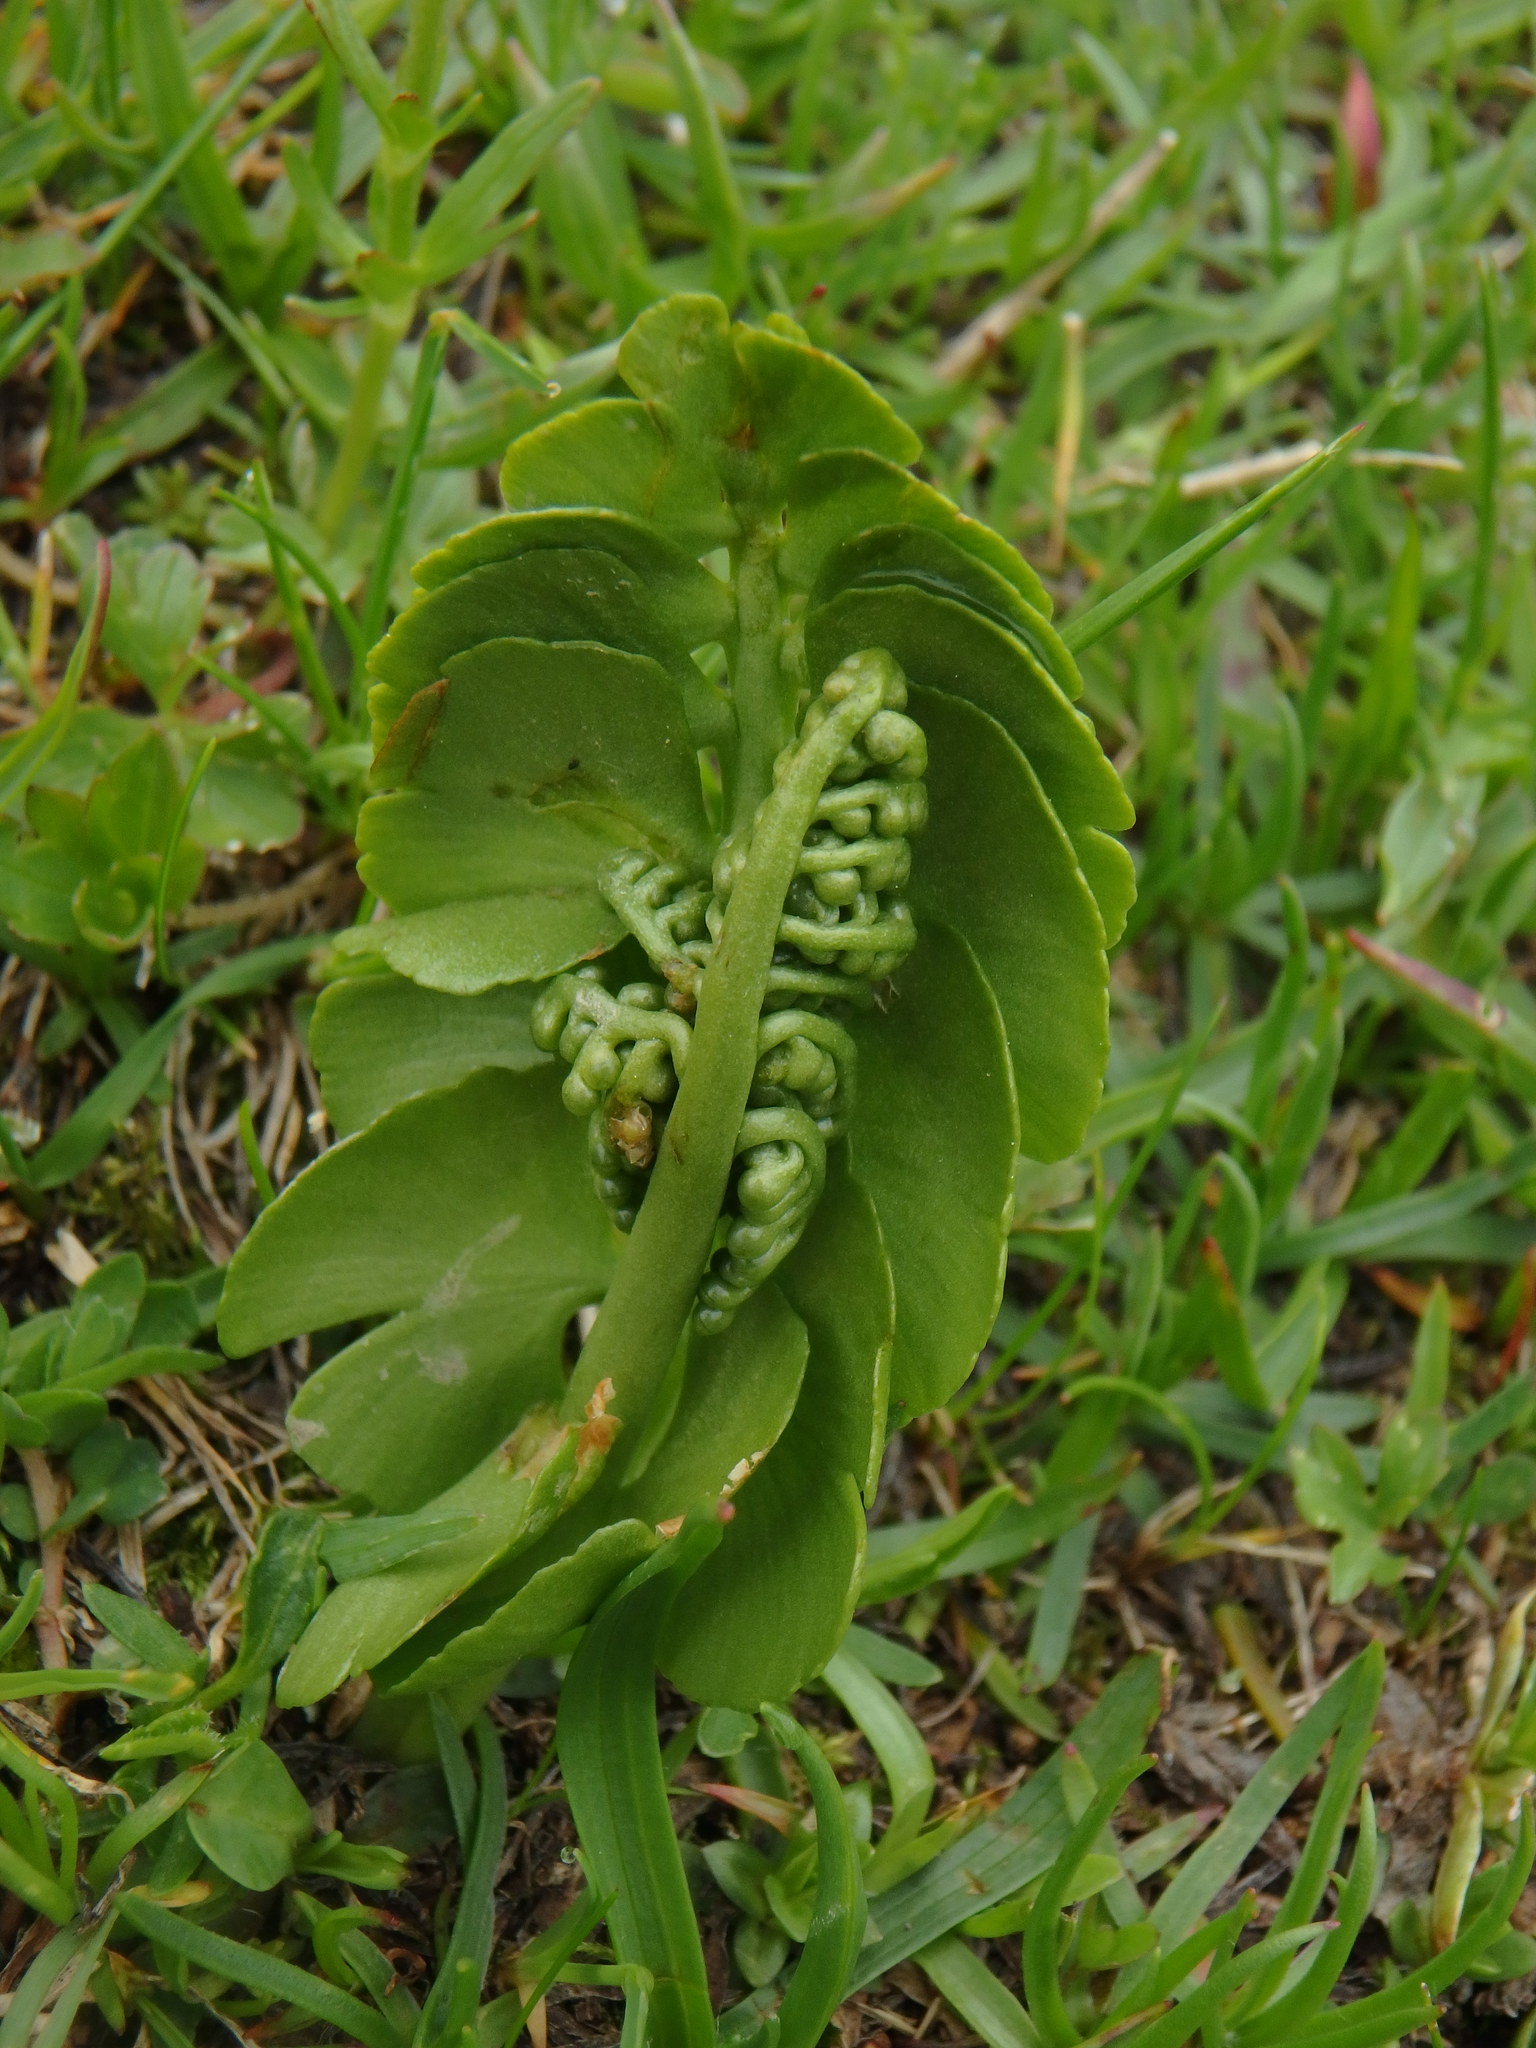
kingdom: Plantae
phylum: Tracheophyta
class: Polypodiopsida
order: Ophioglossales
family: Ophioglossaceae
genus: Botrychium
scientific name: Botrychium lunaria
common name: Moonwort
